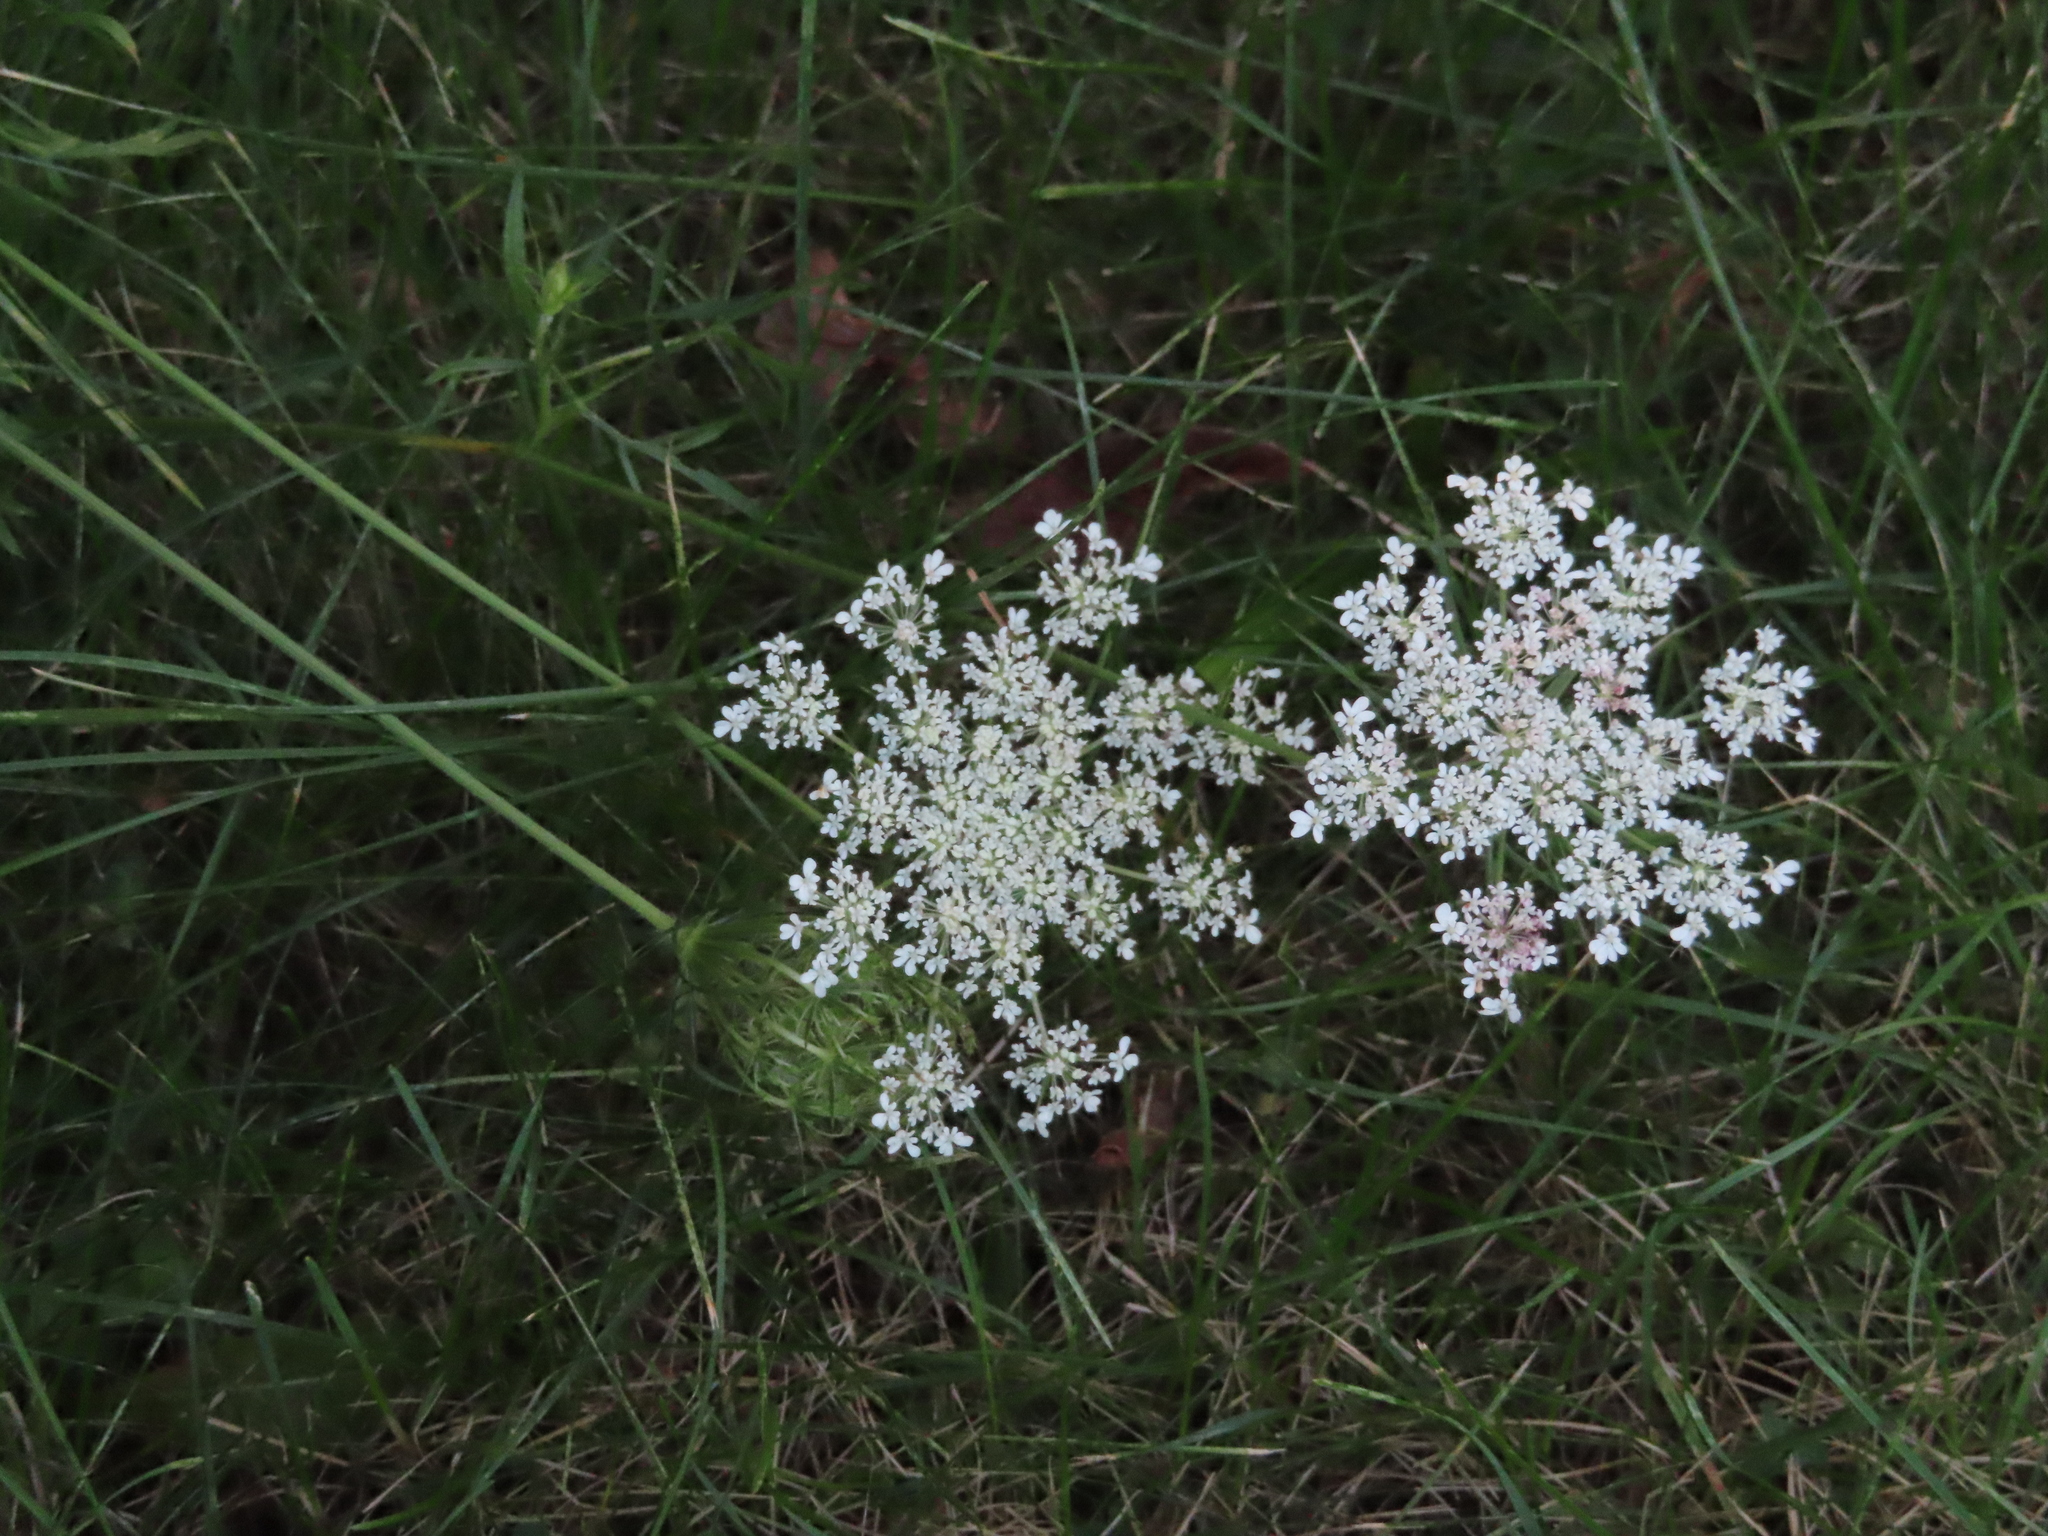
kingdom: Plantae
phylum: Tracheophyta
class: Magnoliopsida
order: Apiales
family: Apiaceae
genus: Daucus
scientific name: Daucus carota
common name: Wild carrot
